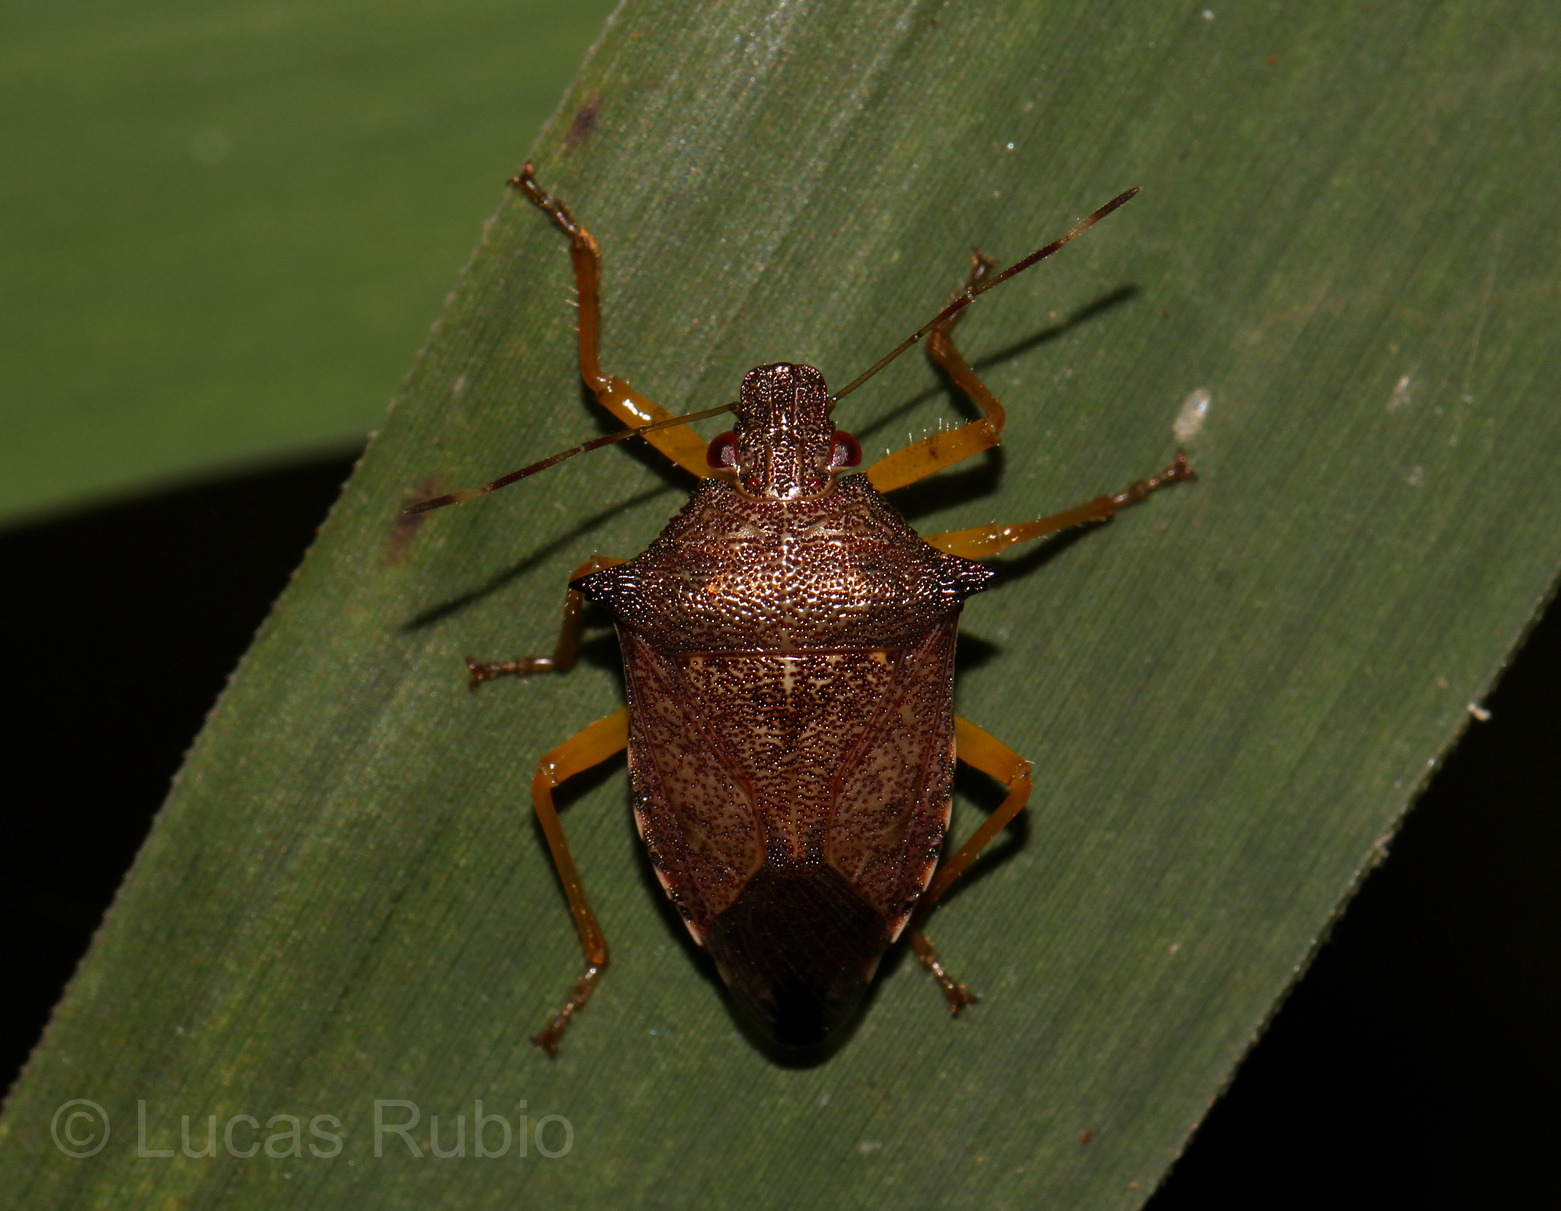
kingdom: Animalia
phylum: Arthropoda
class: Insecta
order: Hemiptera
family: Pentatomidae
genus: Podisus
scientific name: Podisus fuscescens
